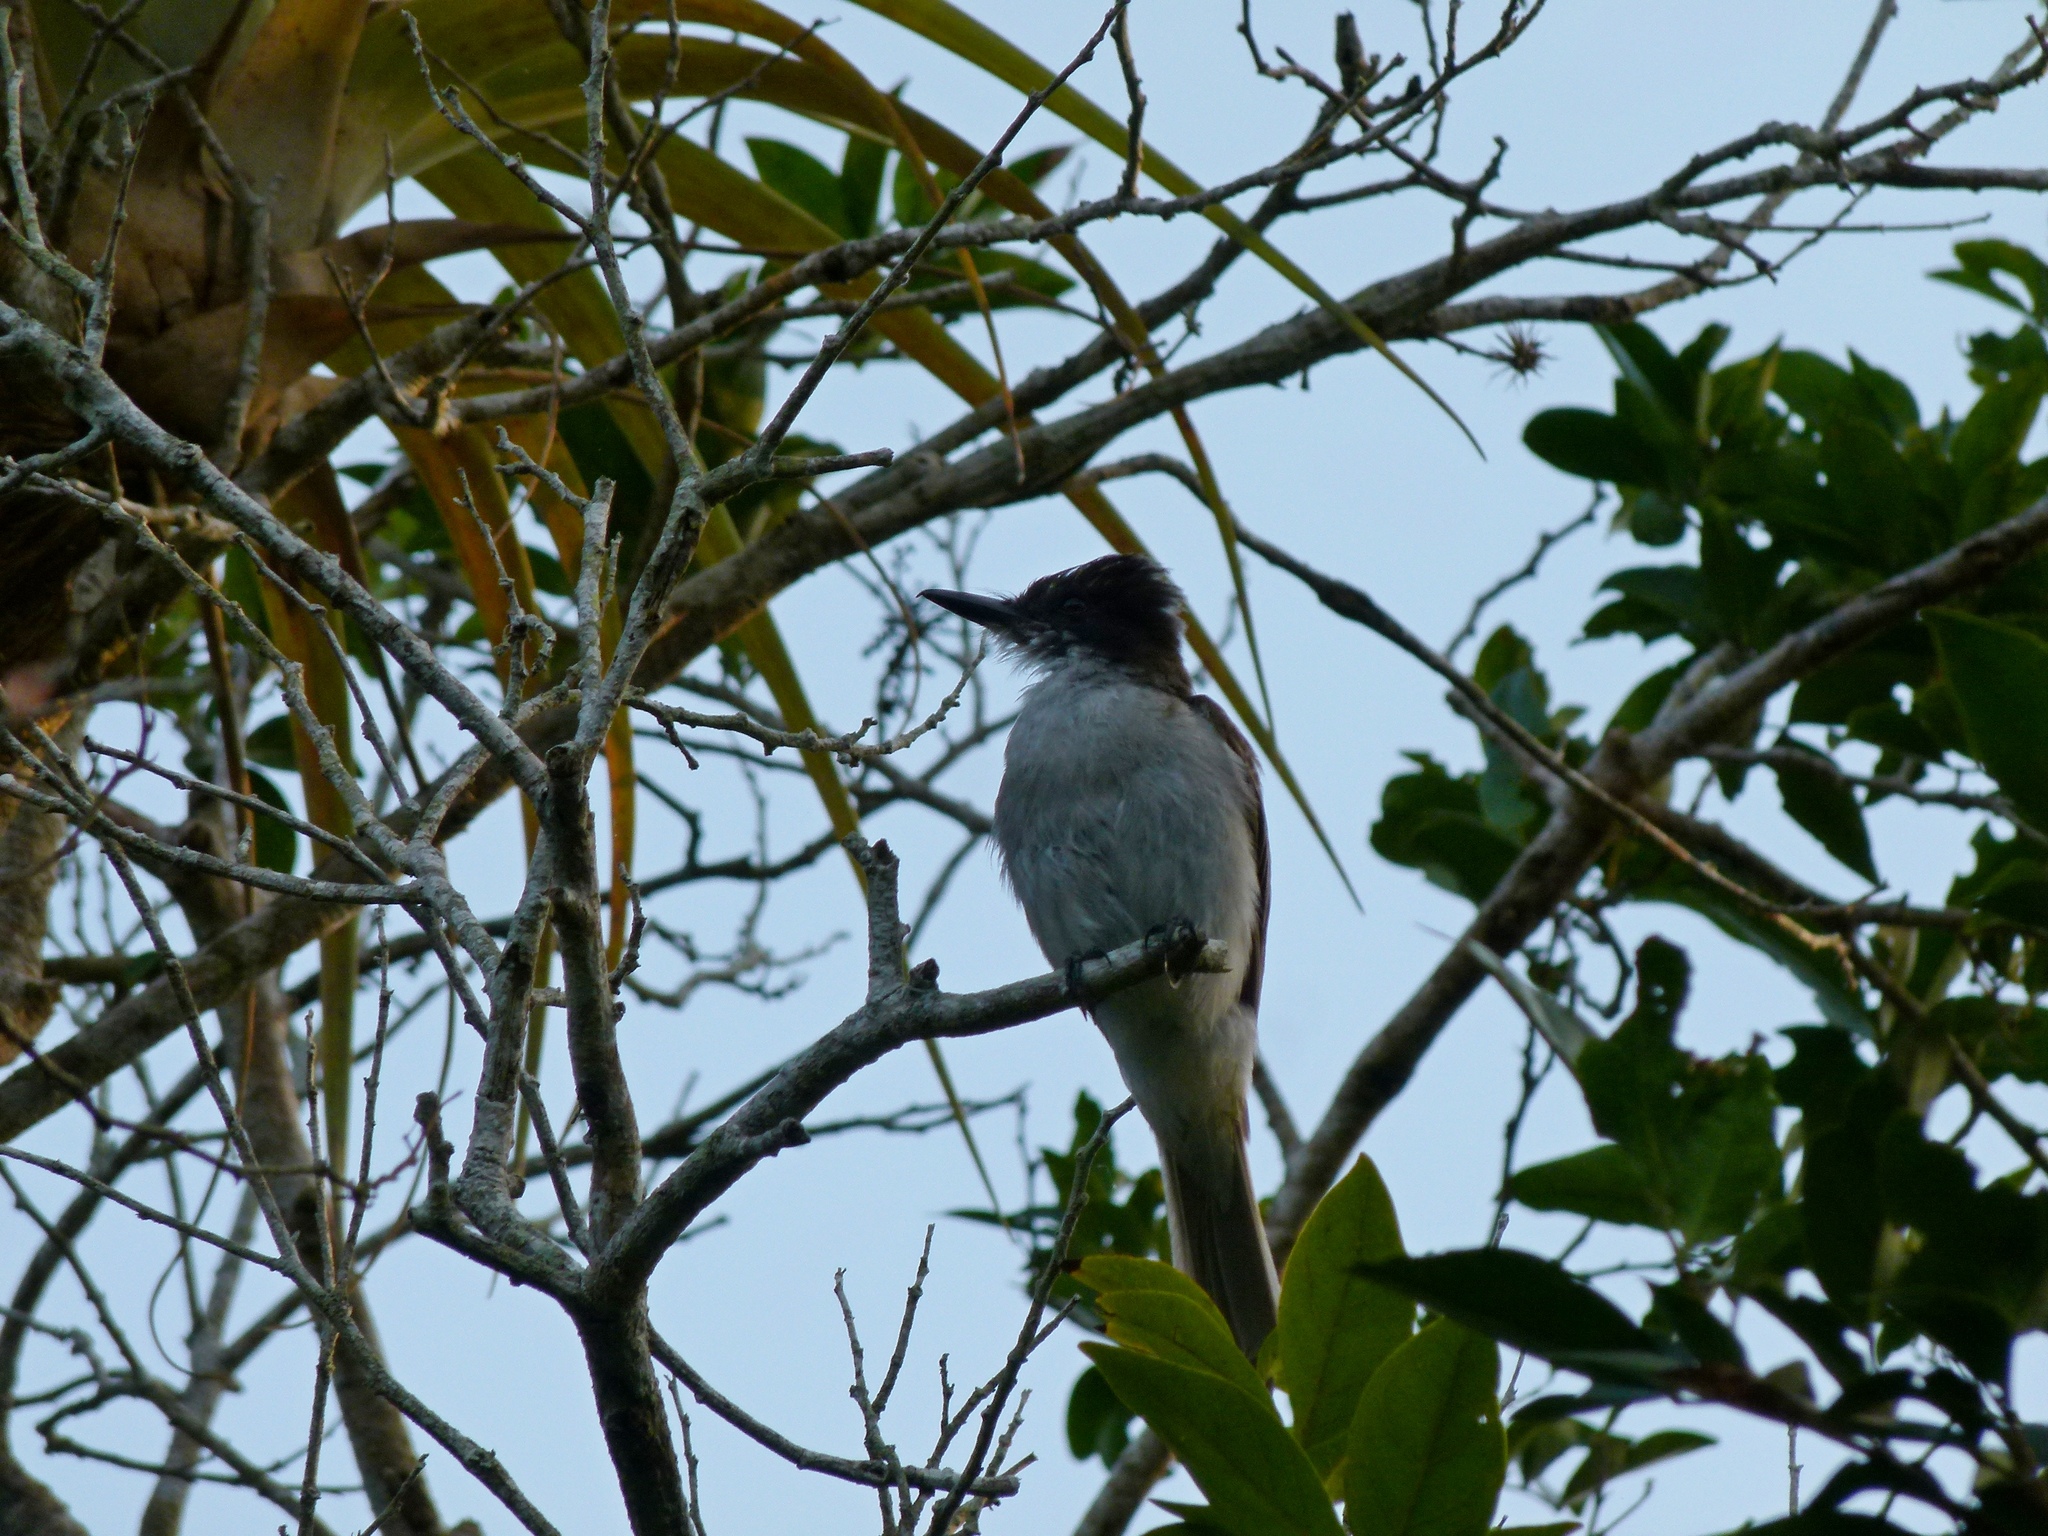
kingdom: Animalia
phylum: Chordata
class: Aves
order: Passeriformes
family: Tyrannidae
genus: Tyrannus
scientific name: Tyrannus caudifasciatus
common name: Loggerhead kingbird
